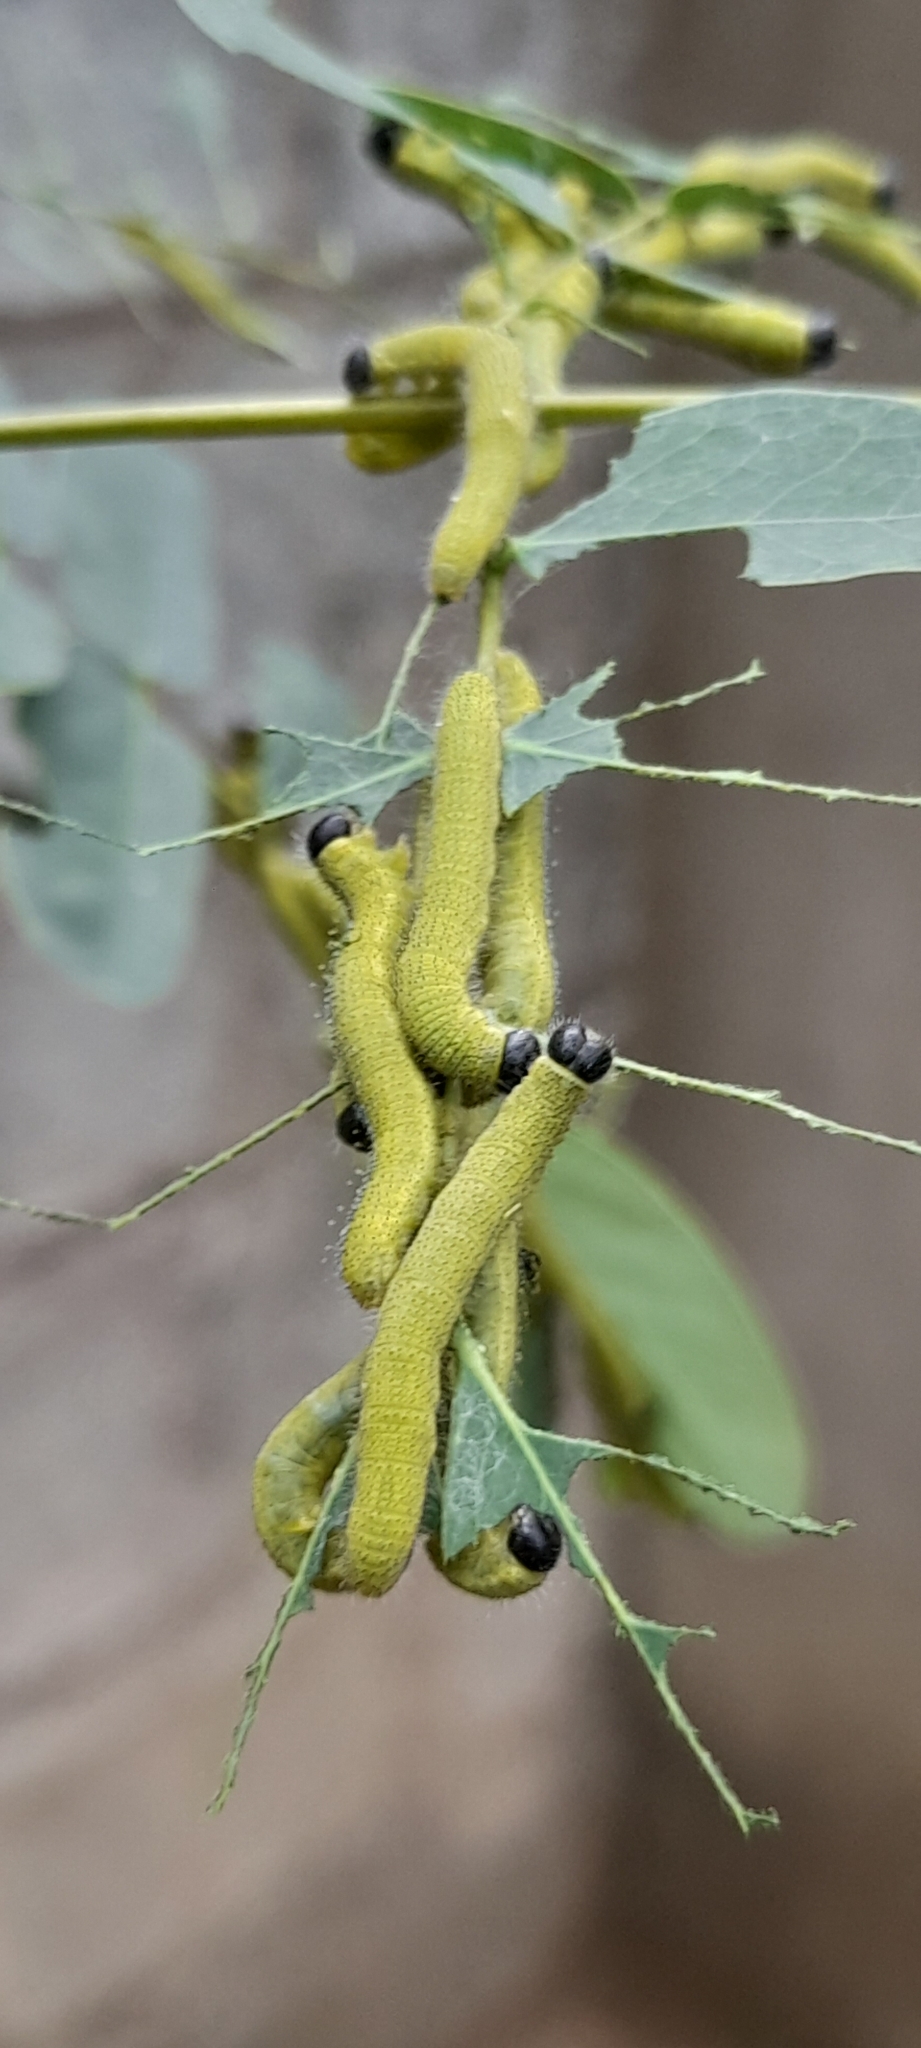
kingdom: Animalia
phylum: Arthropoda
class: Insecta
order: Lepidoptera
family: Pieridae
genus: Eurema
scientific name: Eurema blanda
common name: Three-spot grass yellow
